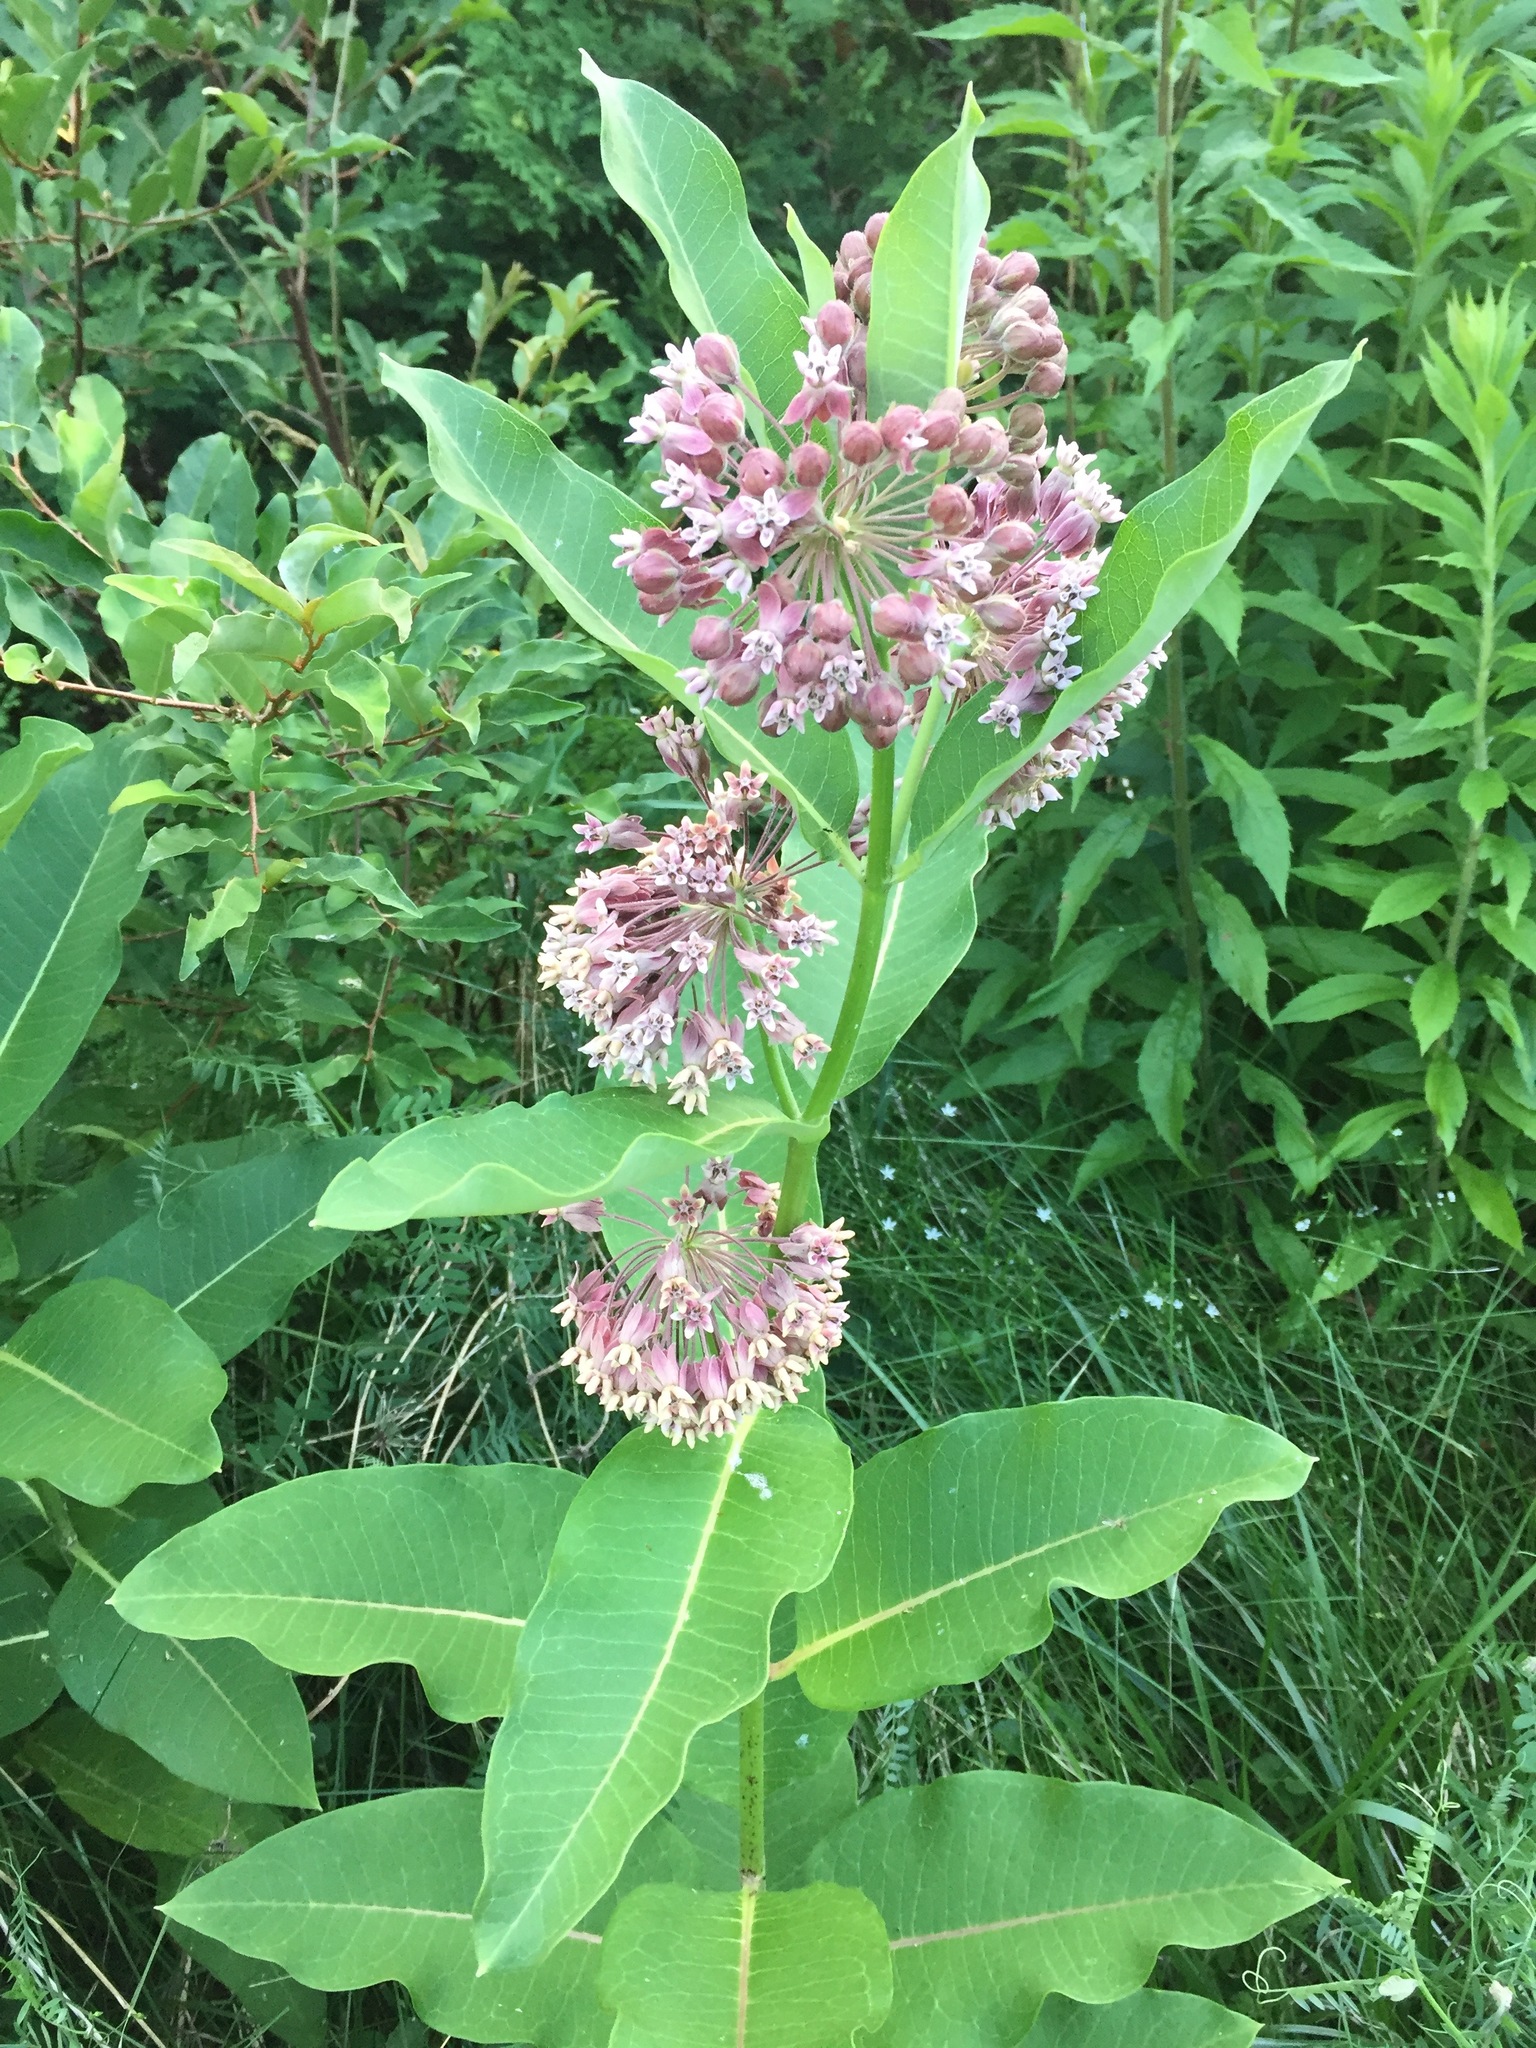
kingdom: Plantae
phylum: Tracheophyta
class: Magnoliopsida
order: Gentianales
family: Apocynaceae
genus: Asclepias
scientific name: Asclepias syriaca
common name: Common milkweed
